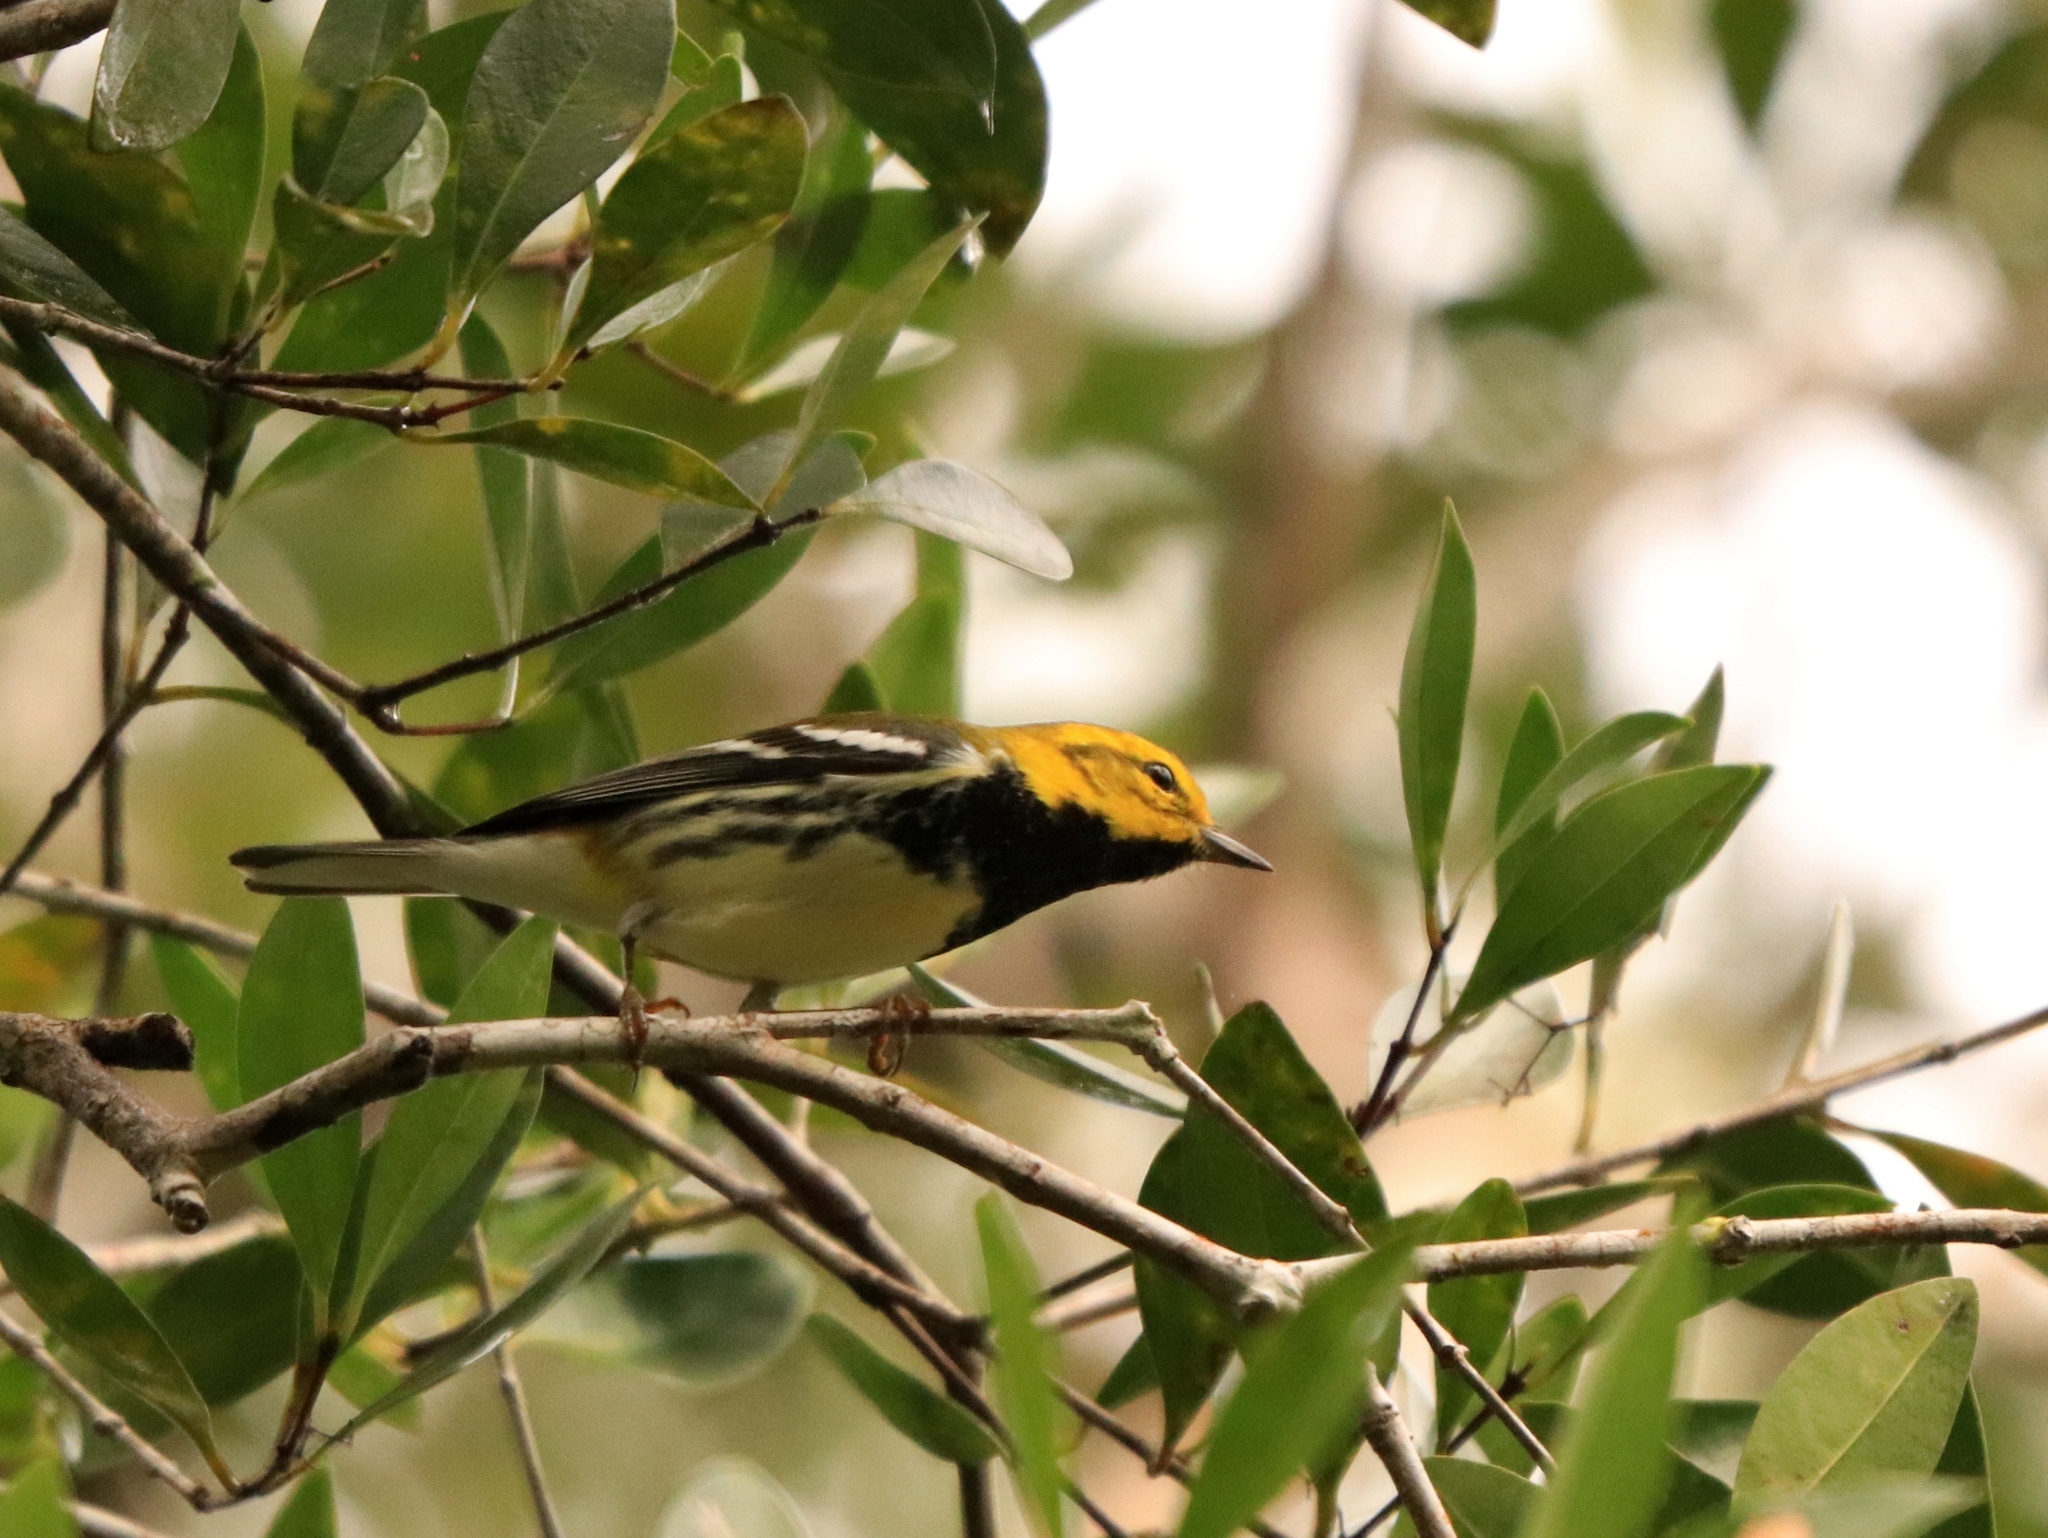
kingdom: Animalia
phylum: Chordata
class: Aves
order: Passeriformes
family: Parulidae
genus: Setophaga
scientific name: Setophaga virens
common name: Black-throated green warbler
